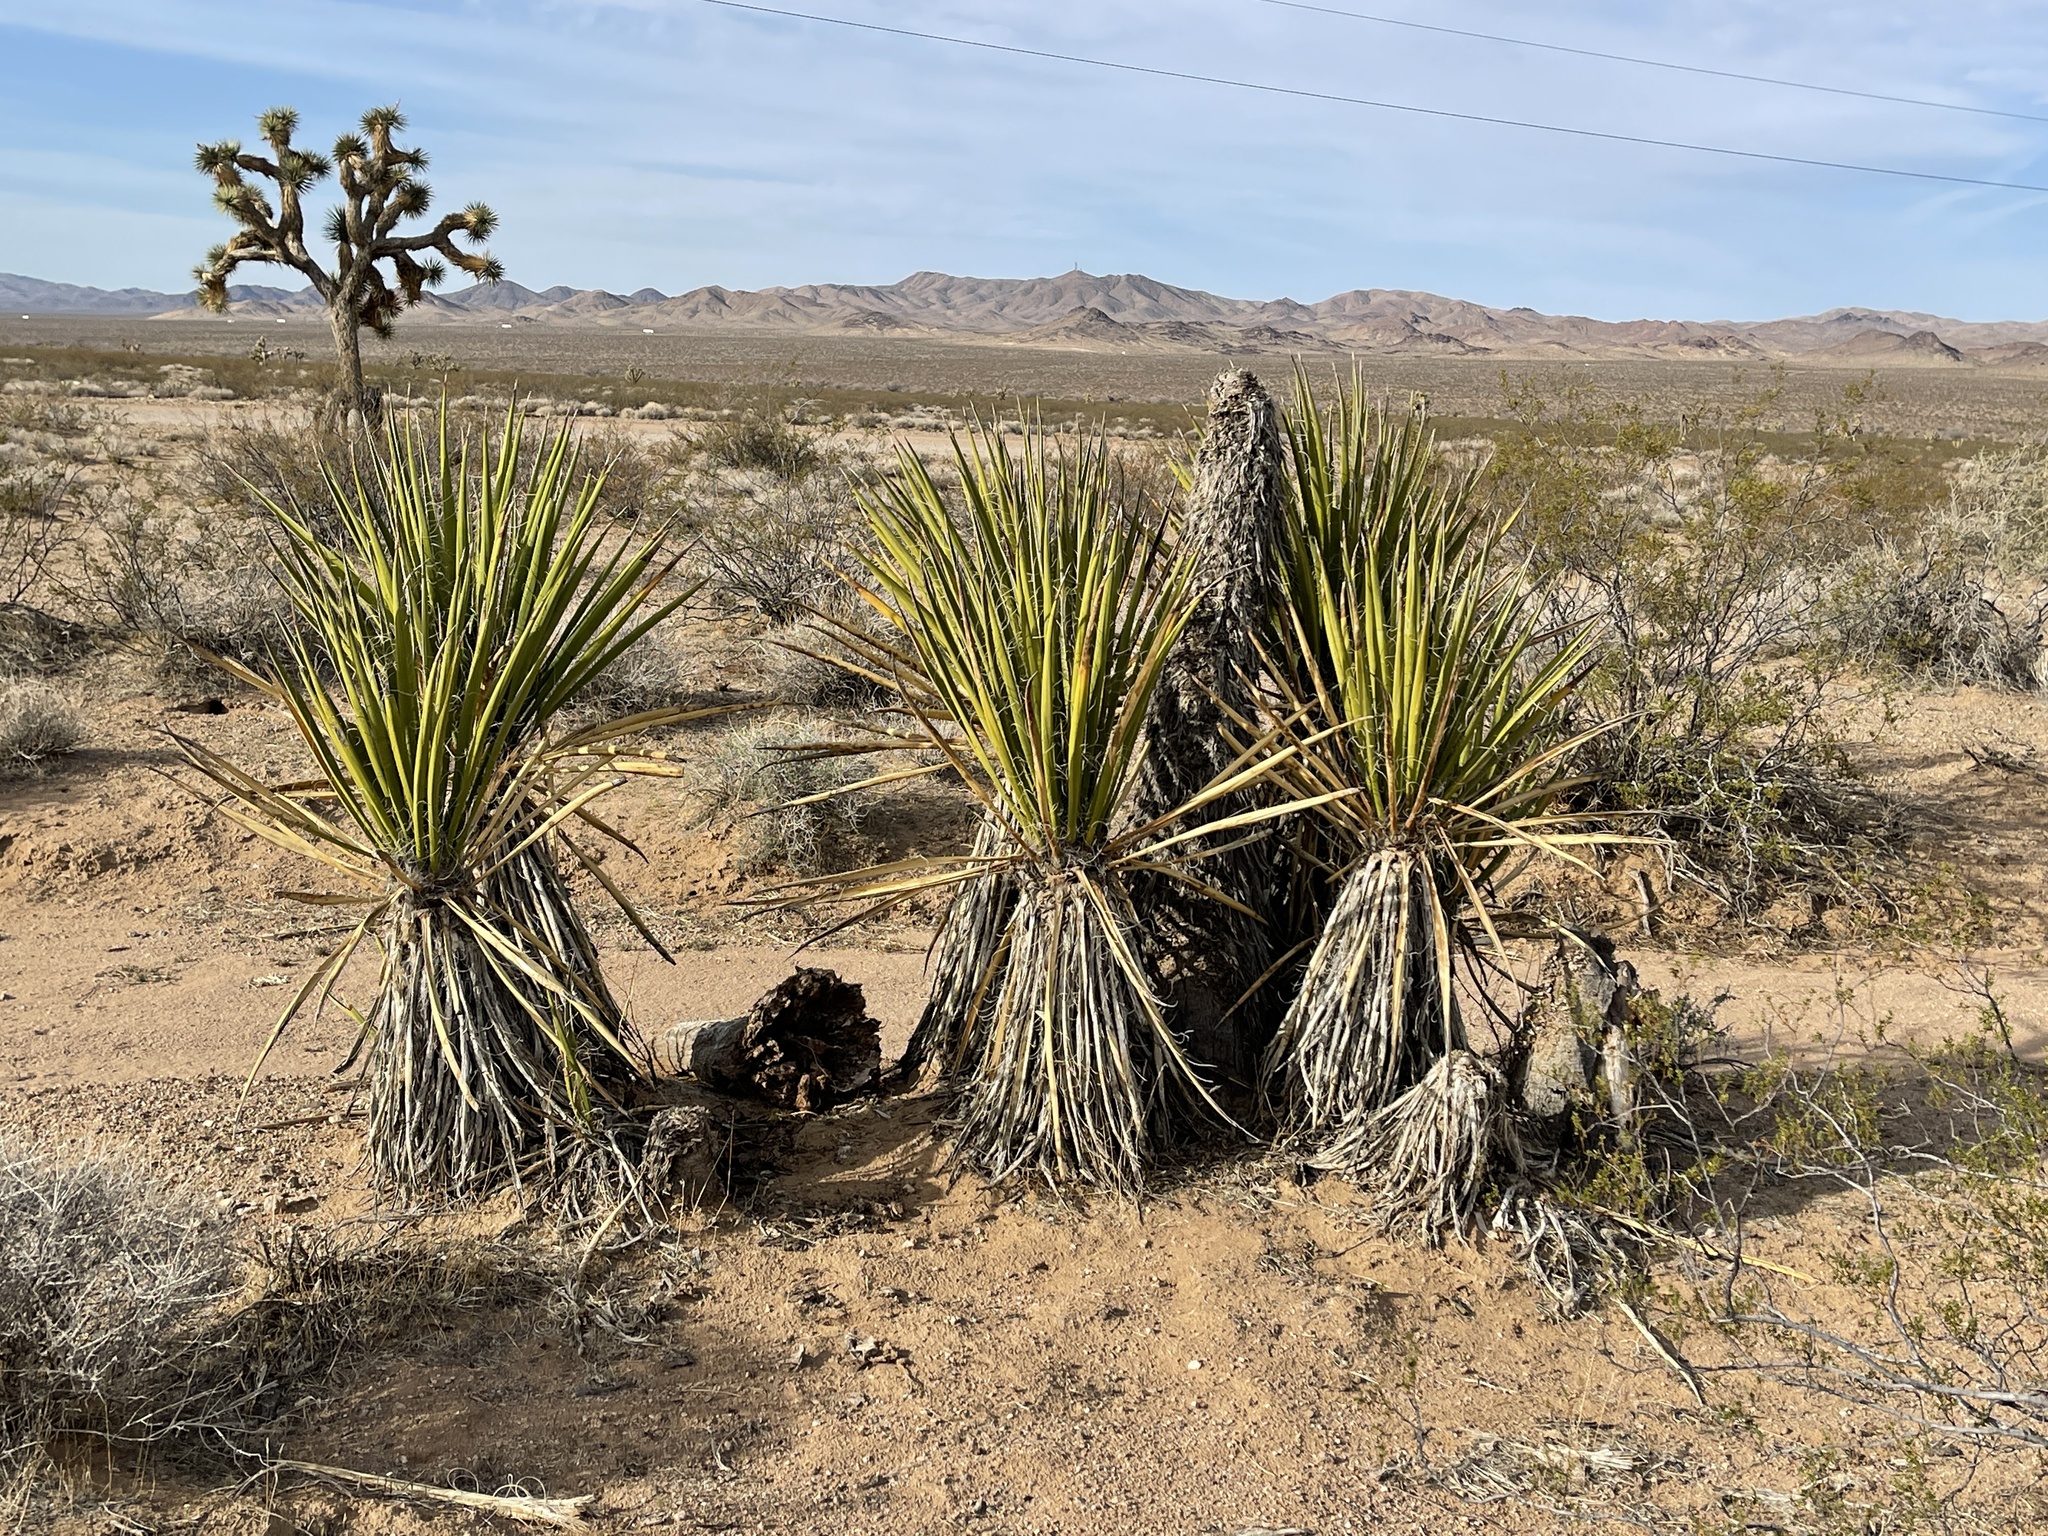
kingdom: Plantae
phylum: Tracheophyta
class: Liliopsida
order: Asparagales
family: Asparagaceae
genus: Yucca
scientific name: Yucca schidigera
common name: Mojave yucca
